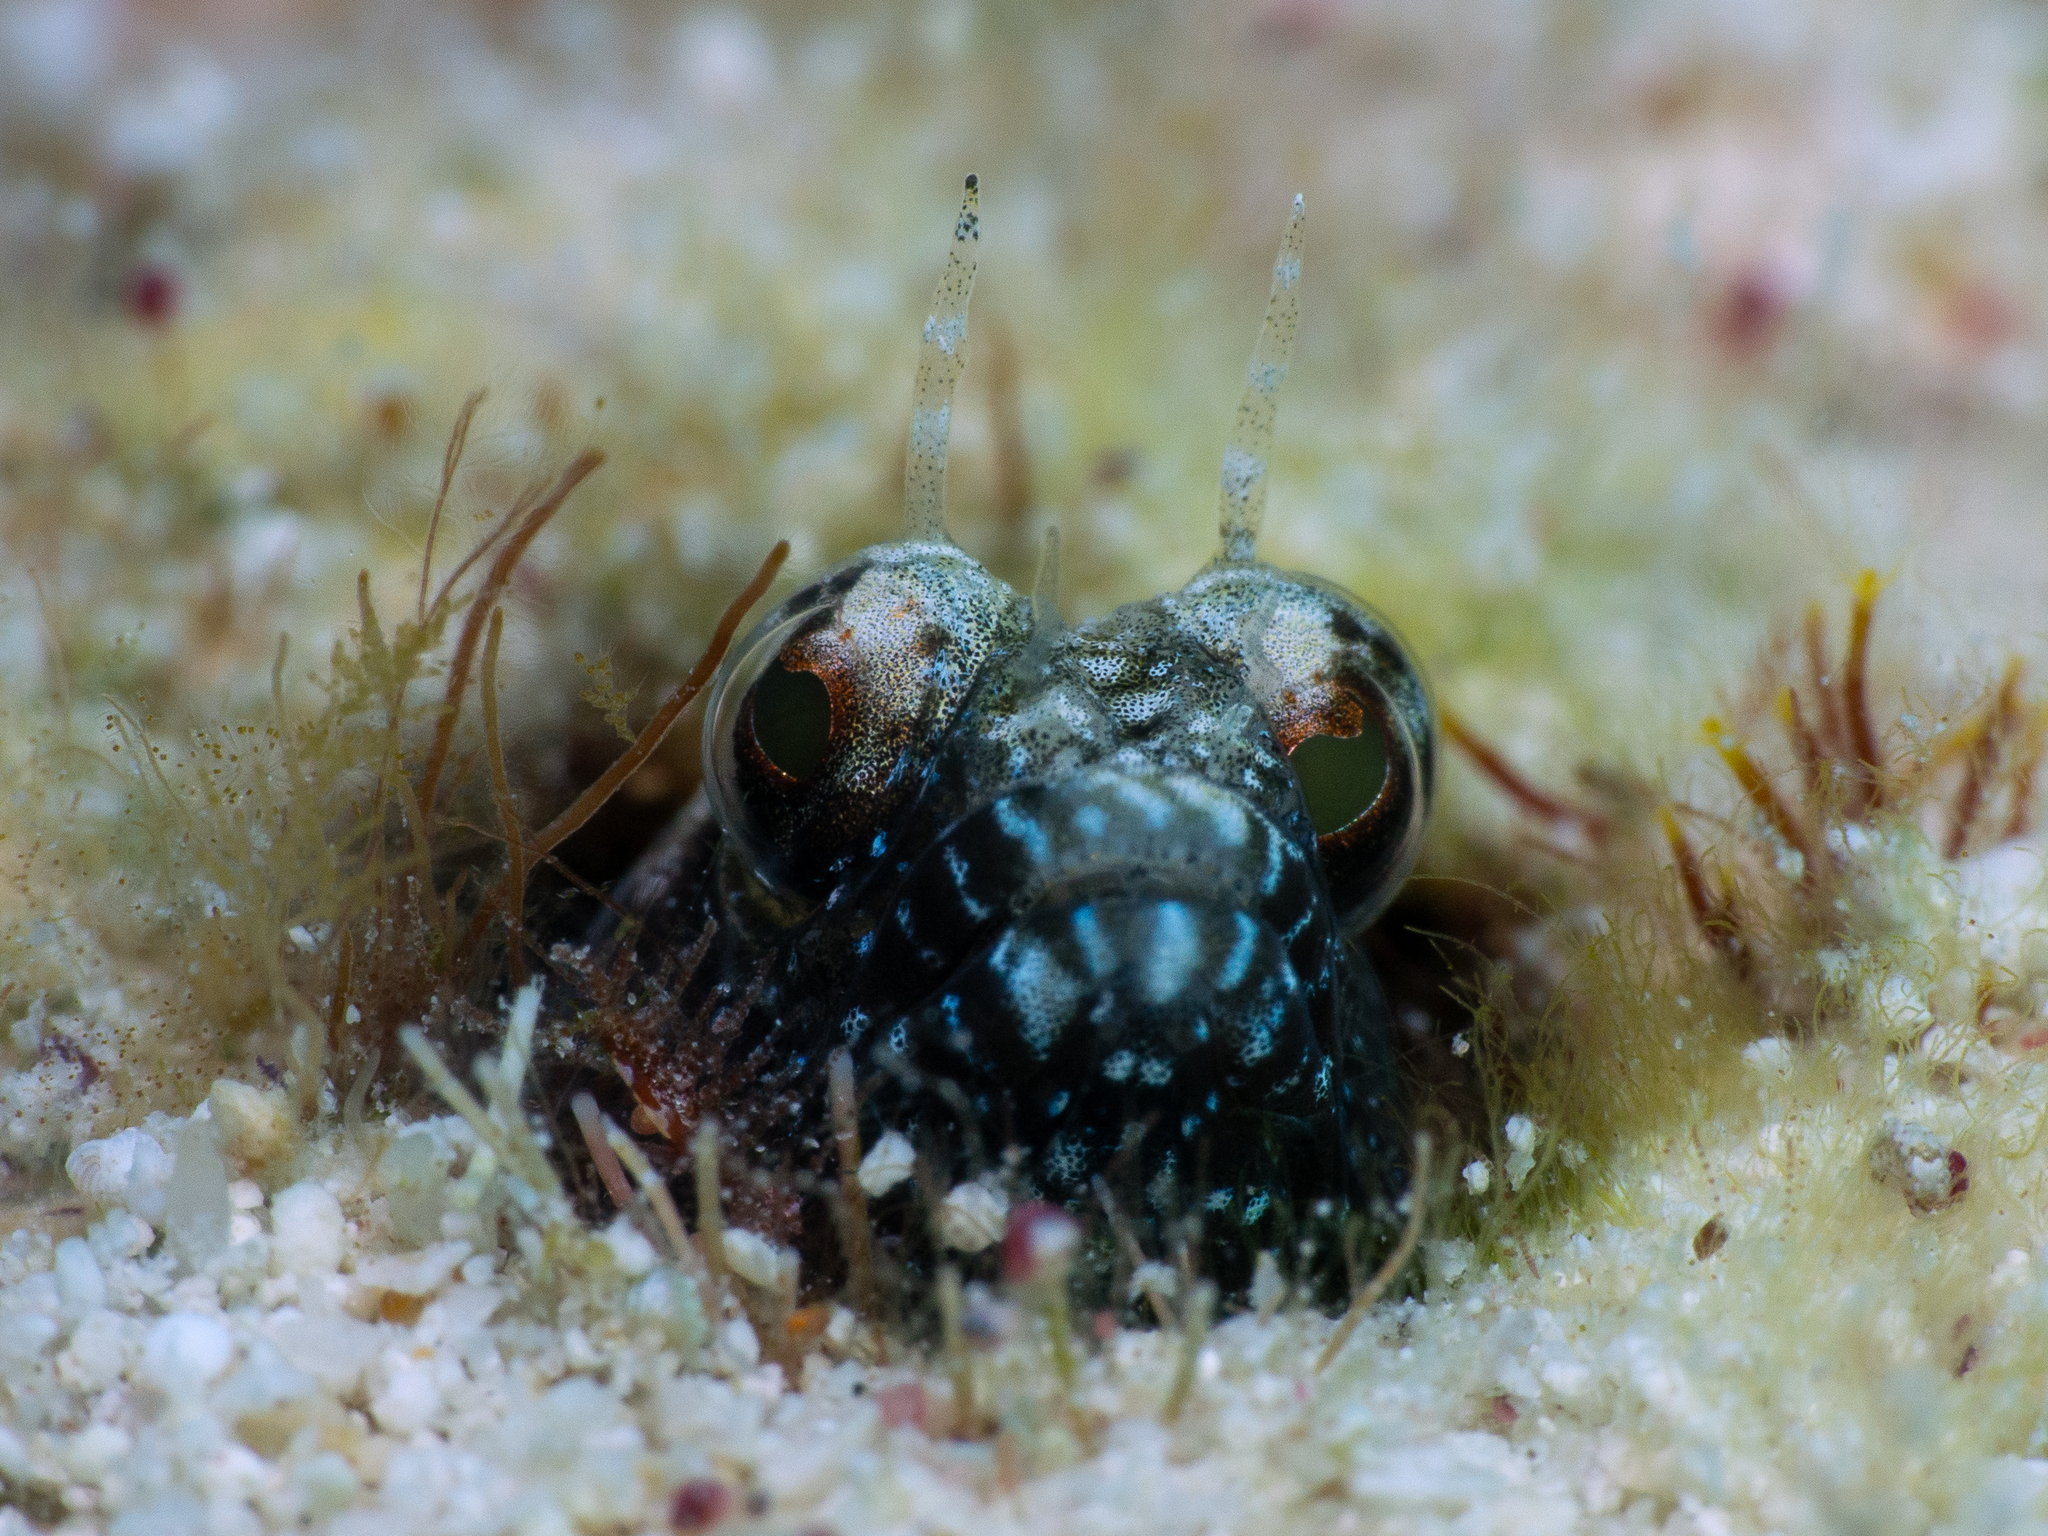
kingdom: Animalia
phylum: Chordata
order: Perciformes
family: Chaenopsidae
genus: Emblemaria
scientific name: Emblemaria pandionis
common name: Sailfin blenny
